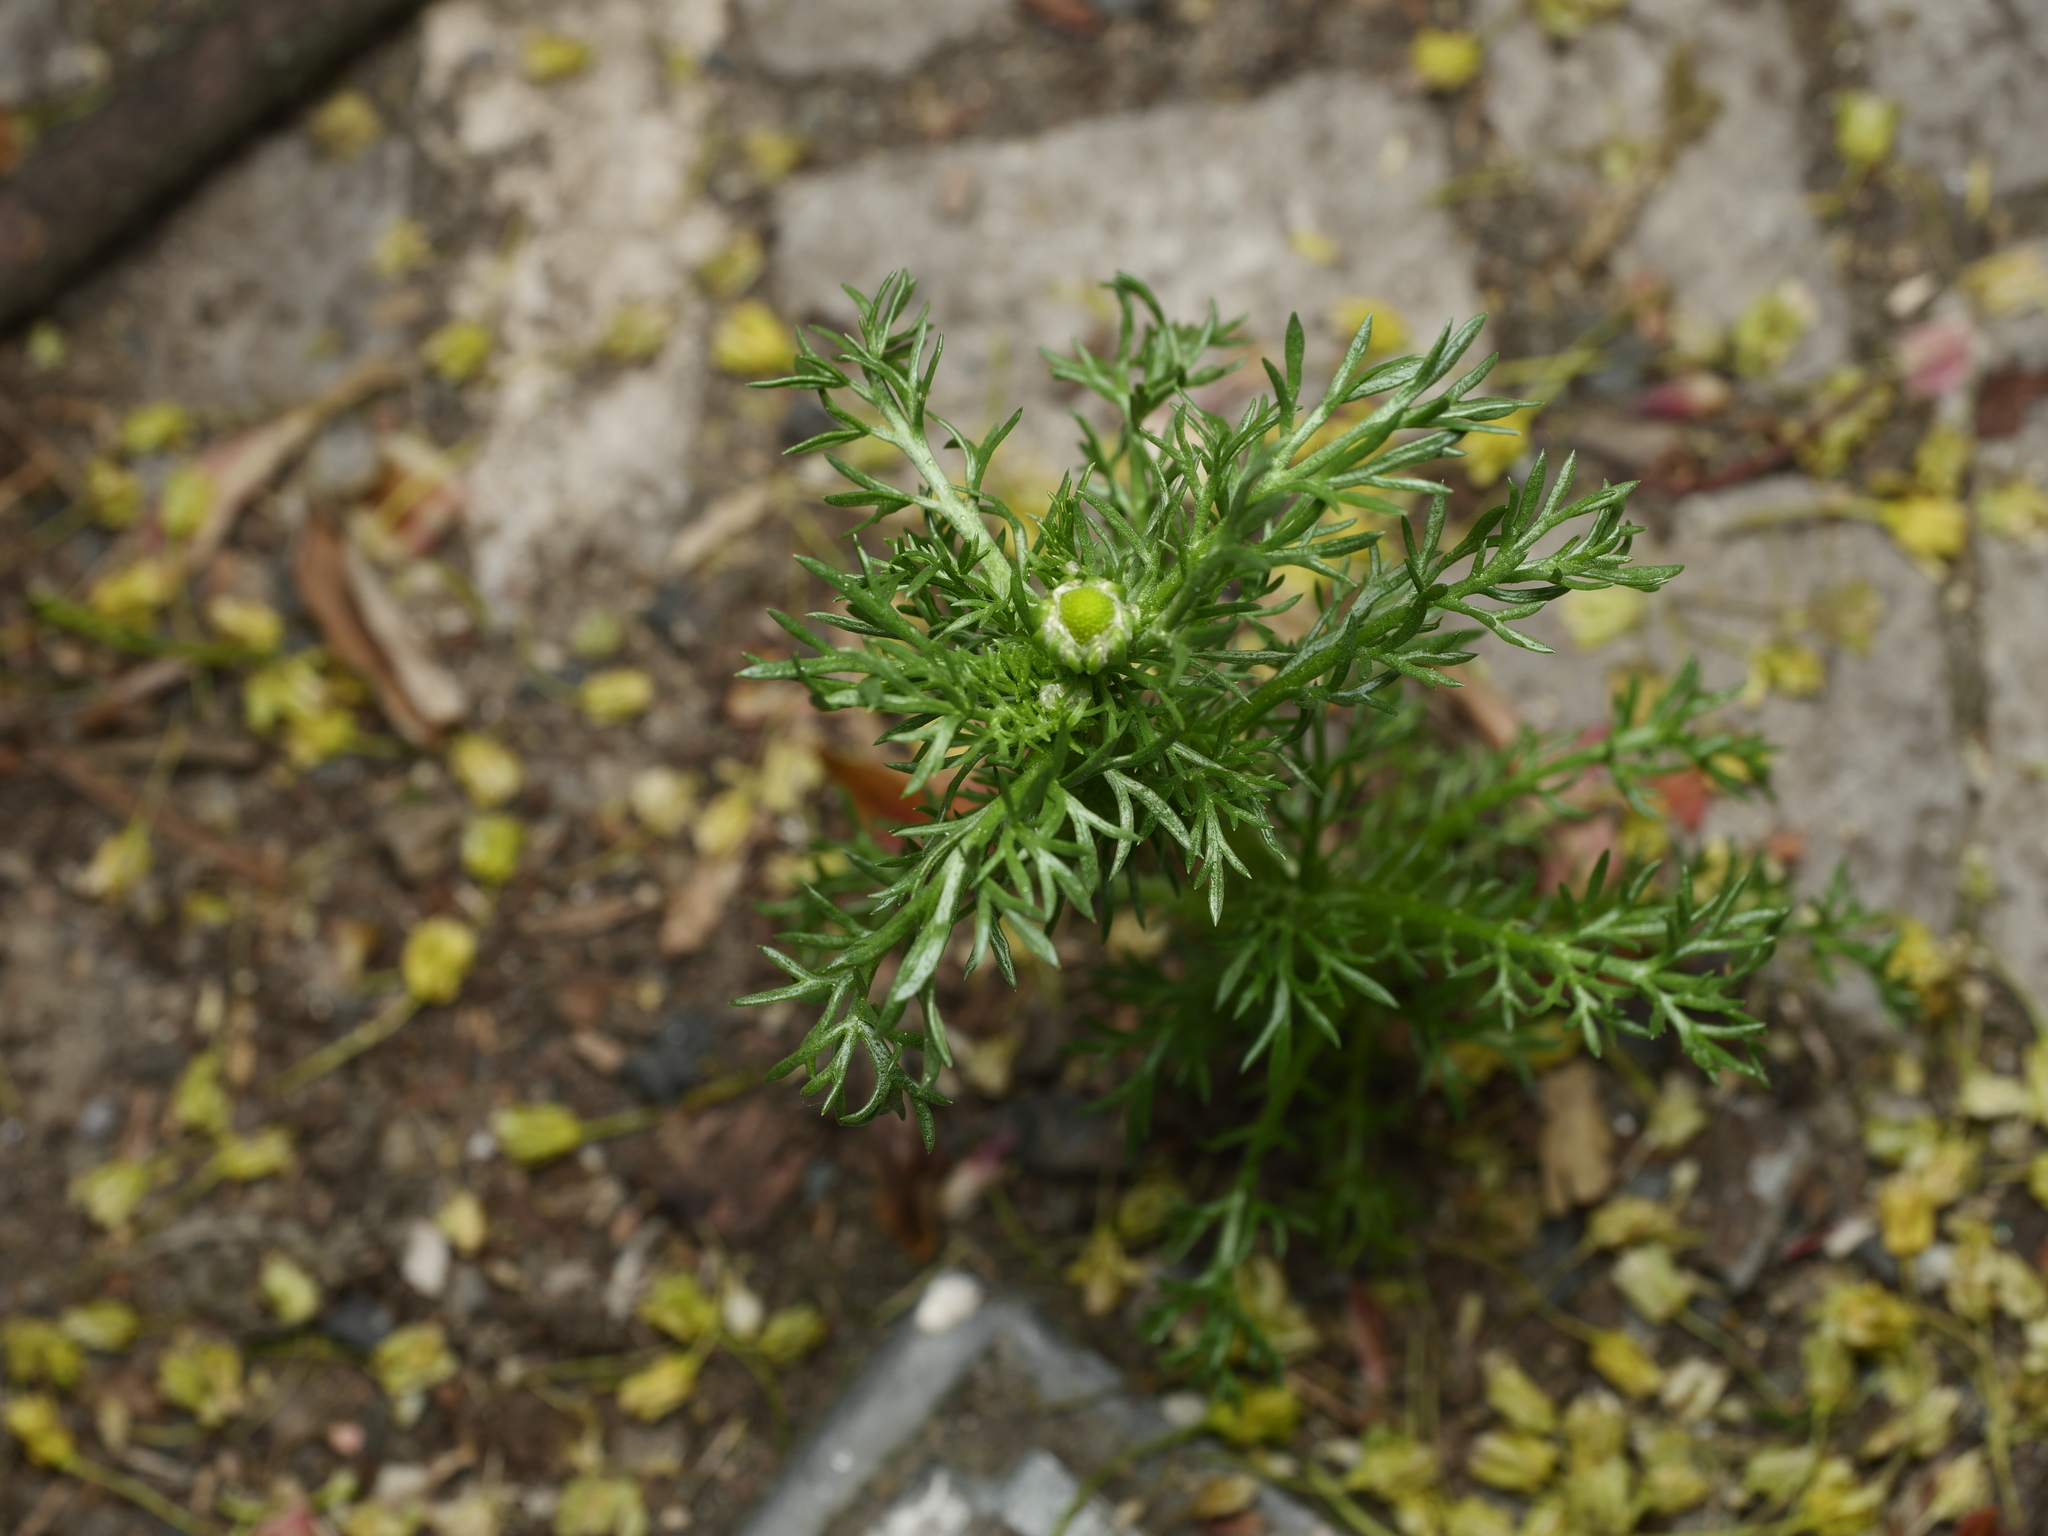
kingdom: Plantae
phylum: Tracheophyta
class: Magnoliopsida
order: Asterales
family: Asteraceae
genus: Matricaria
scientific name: Matricaria discoidea
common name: Disc mayweed
